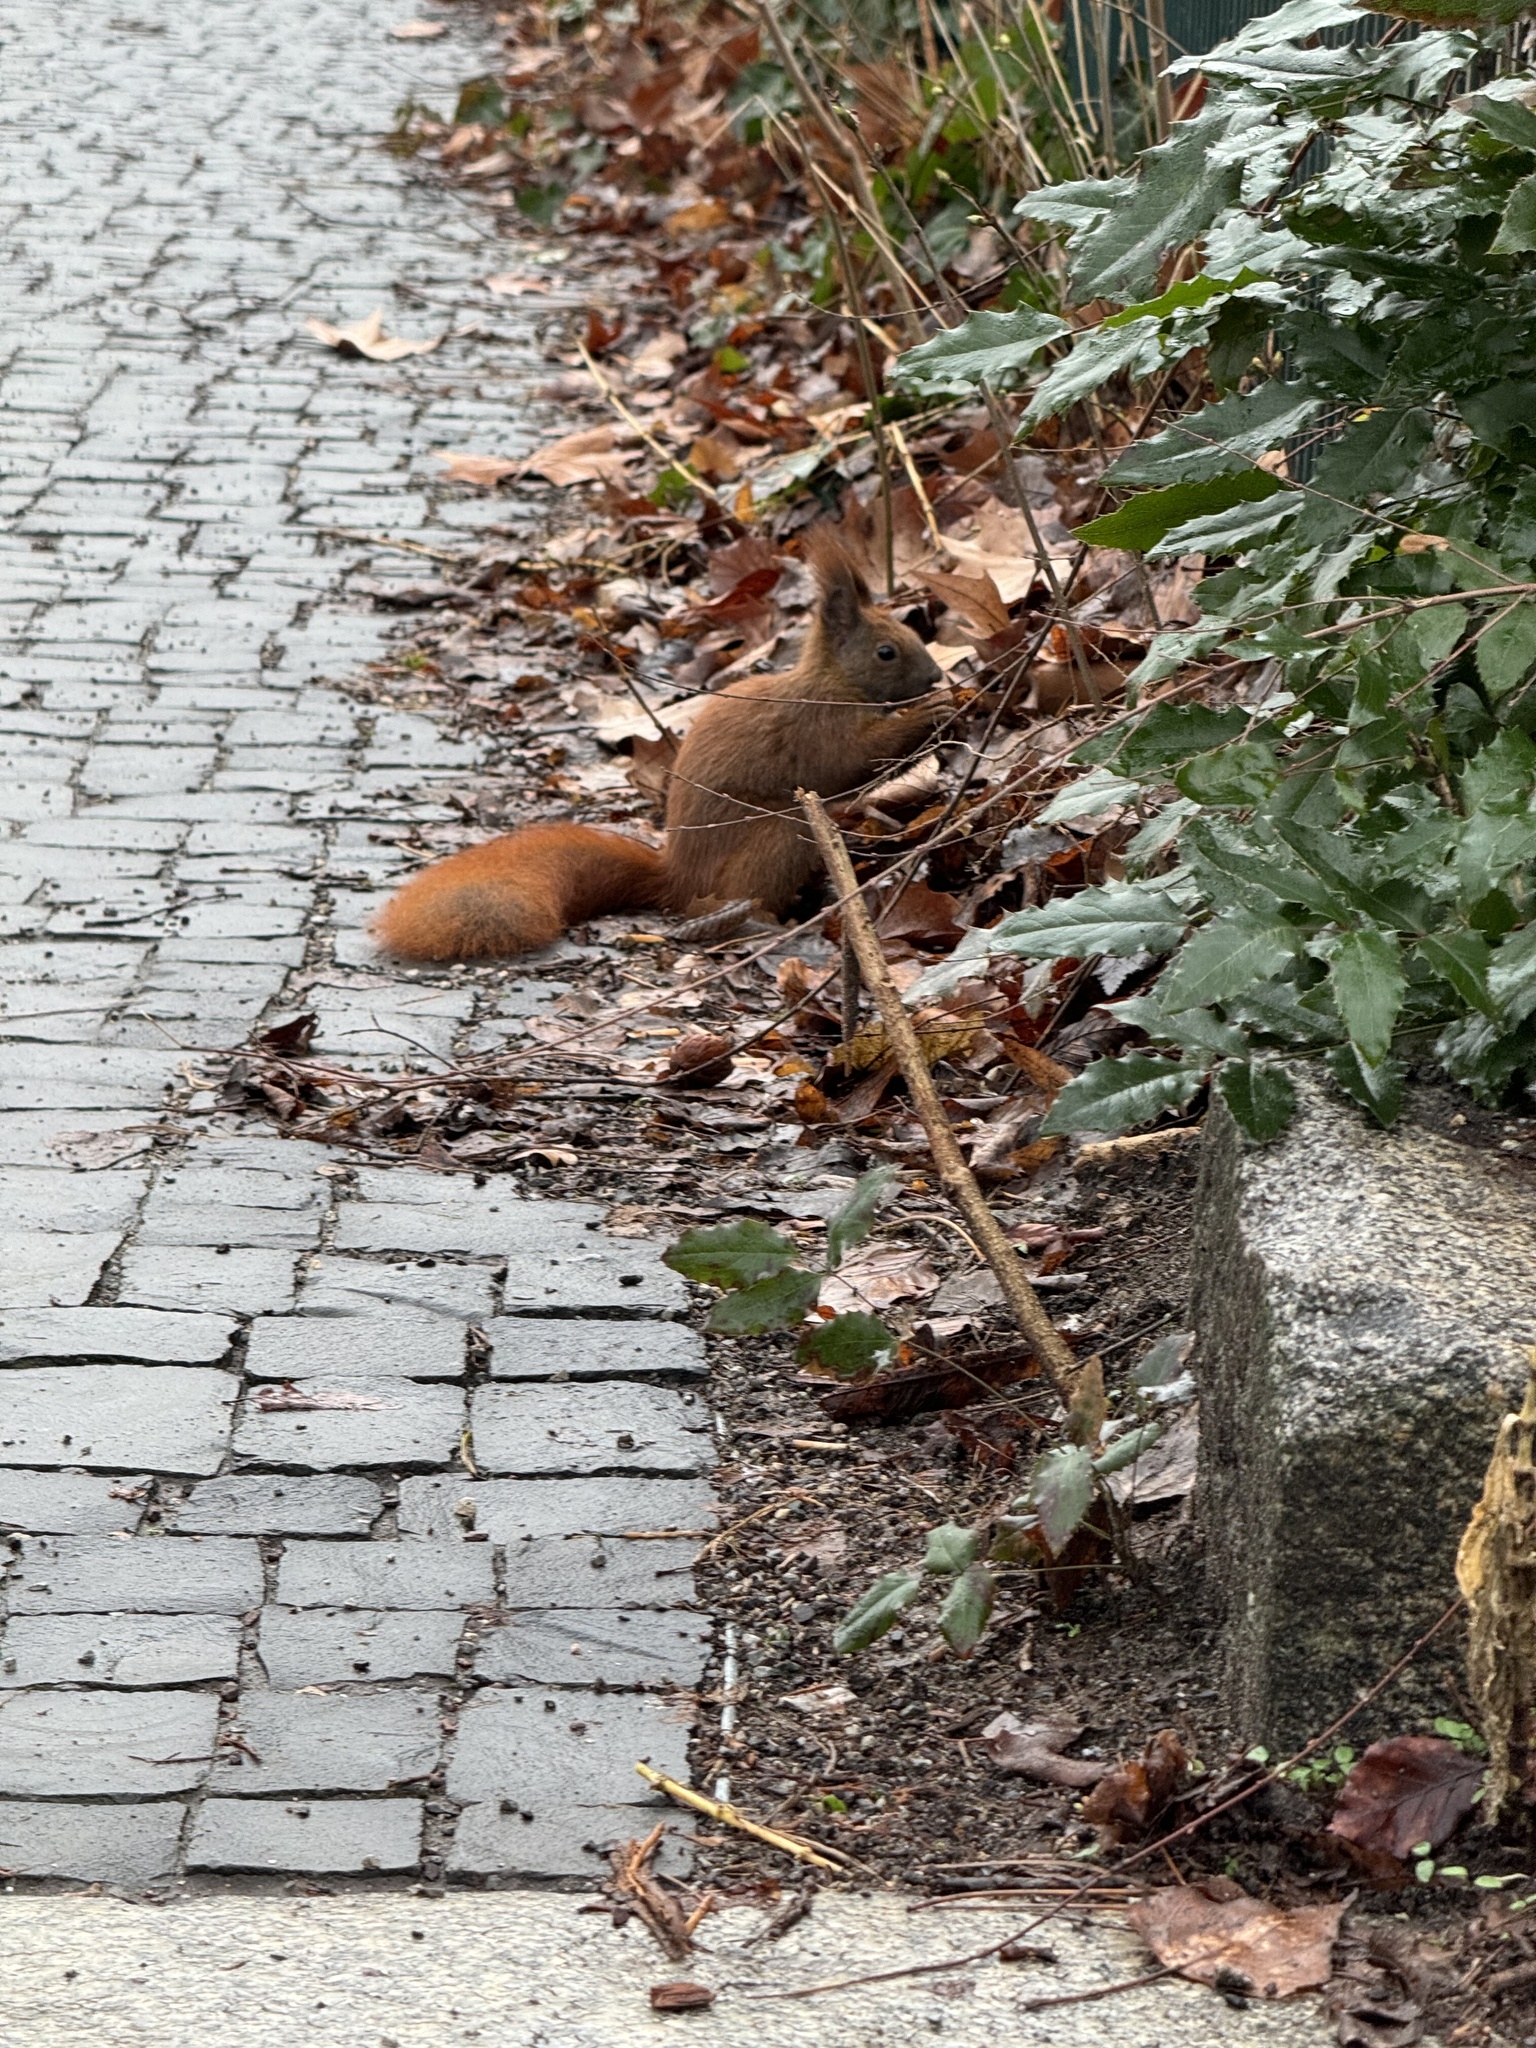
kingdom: Animalia
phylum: Chordata
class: Mammalia
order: Rodentia
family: Sciuridae
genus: Sciurus
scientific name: Sciurus vulgaris
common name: Eurasian red squirrel
